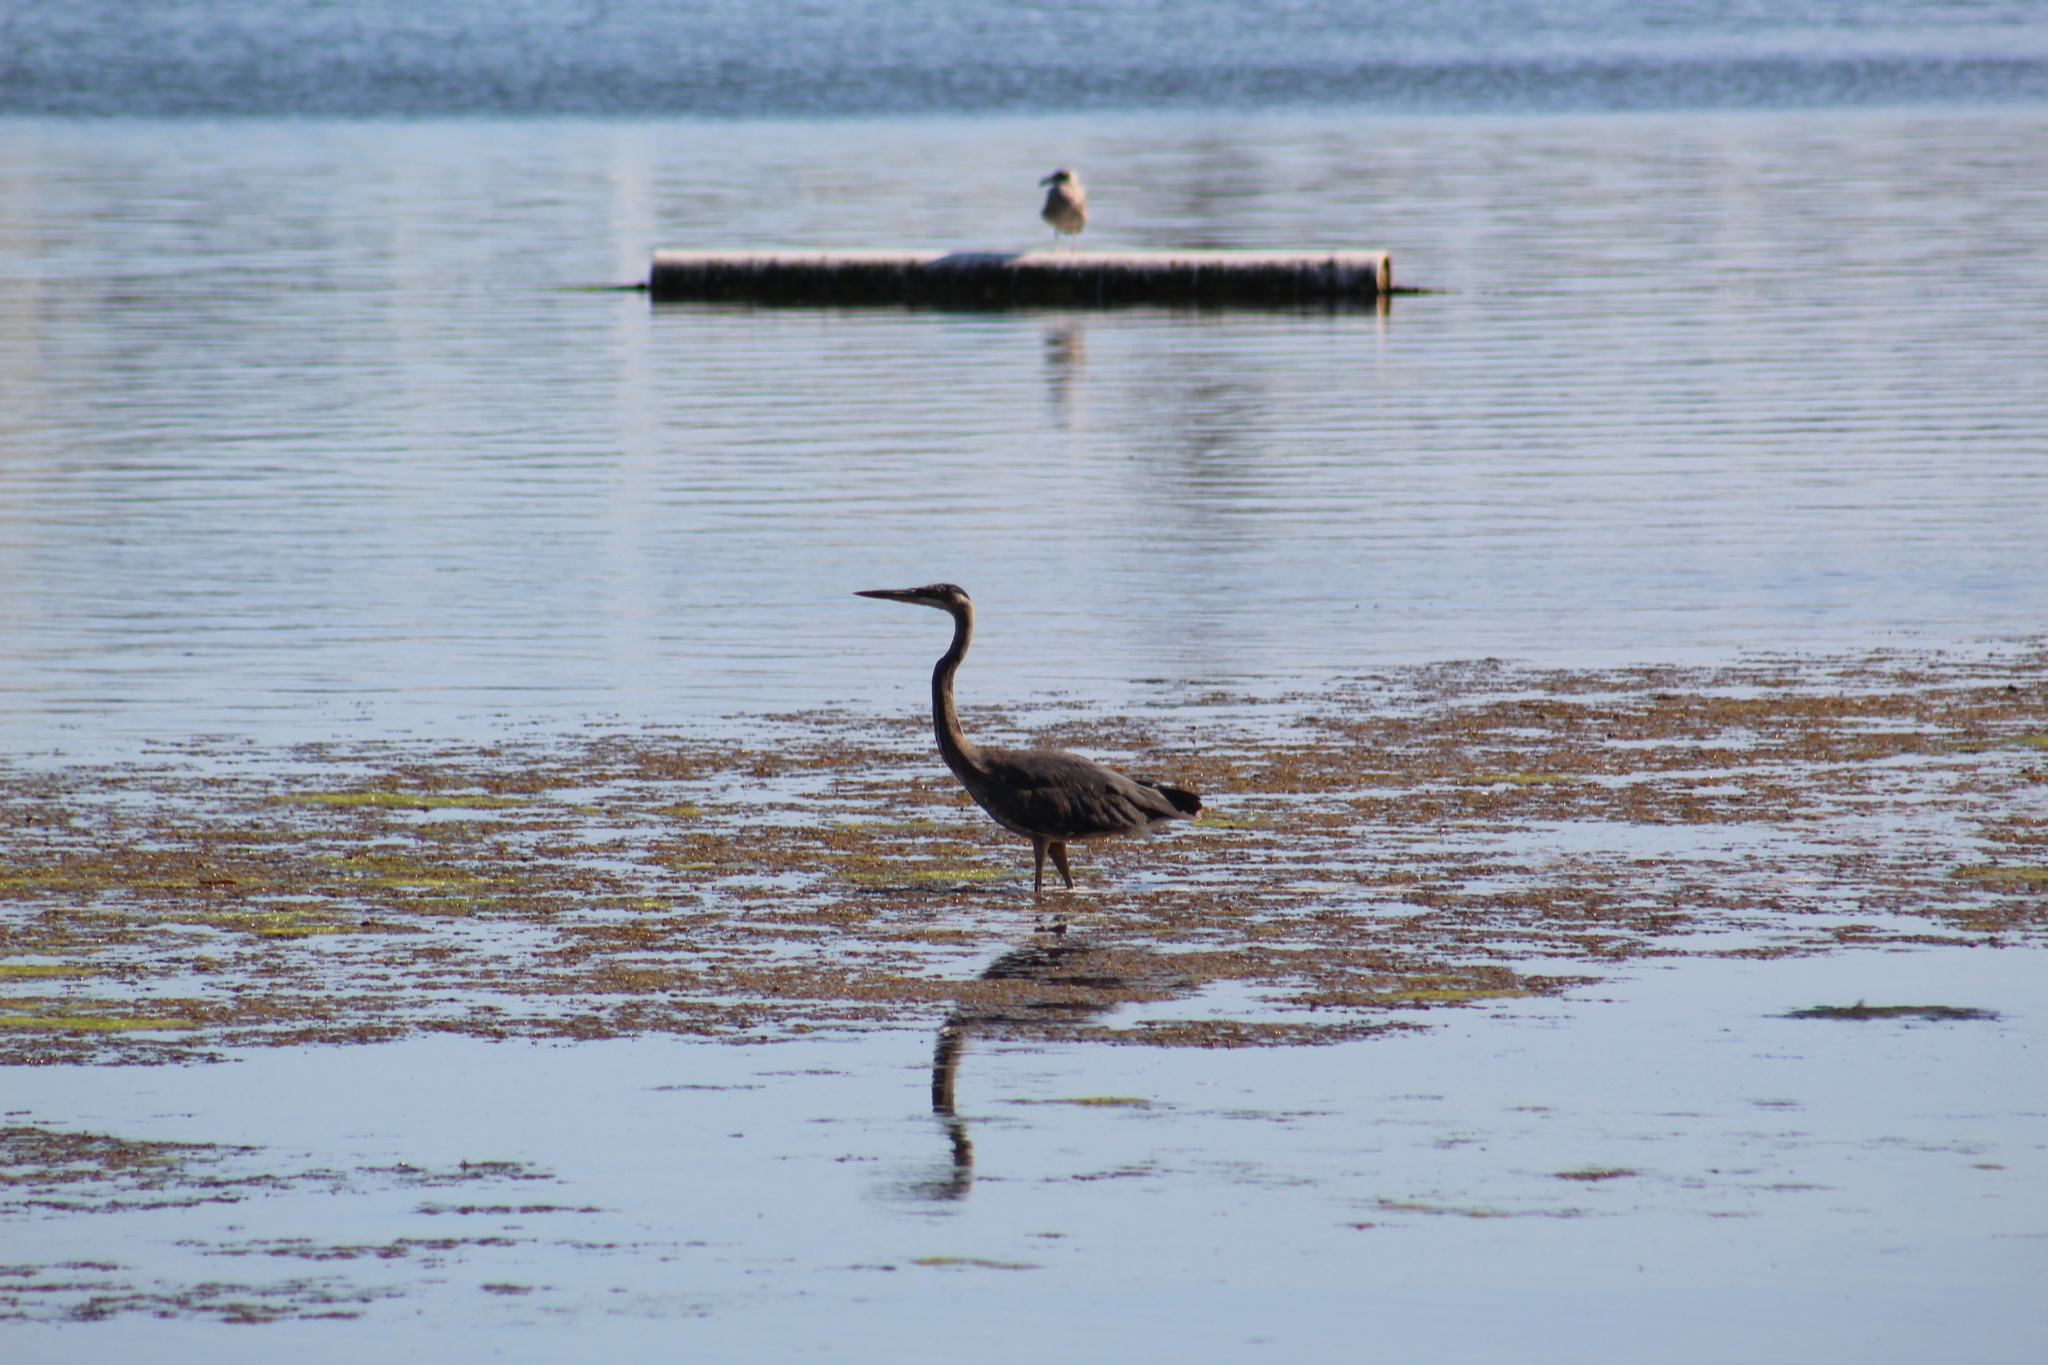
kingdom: Animalia
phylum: Chordata
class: Aves
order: Pelecaniformes
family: Ardeidae
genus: Ardea
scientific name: Ardea herodias
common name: Great blue heron
